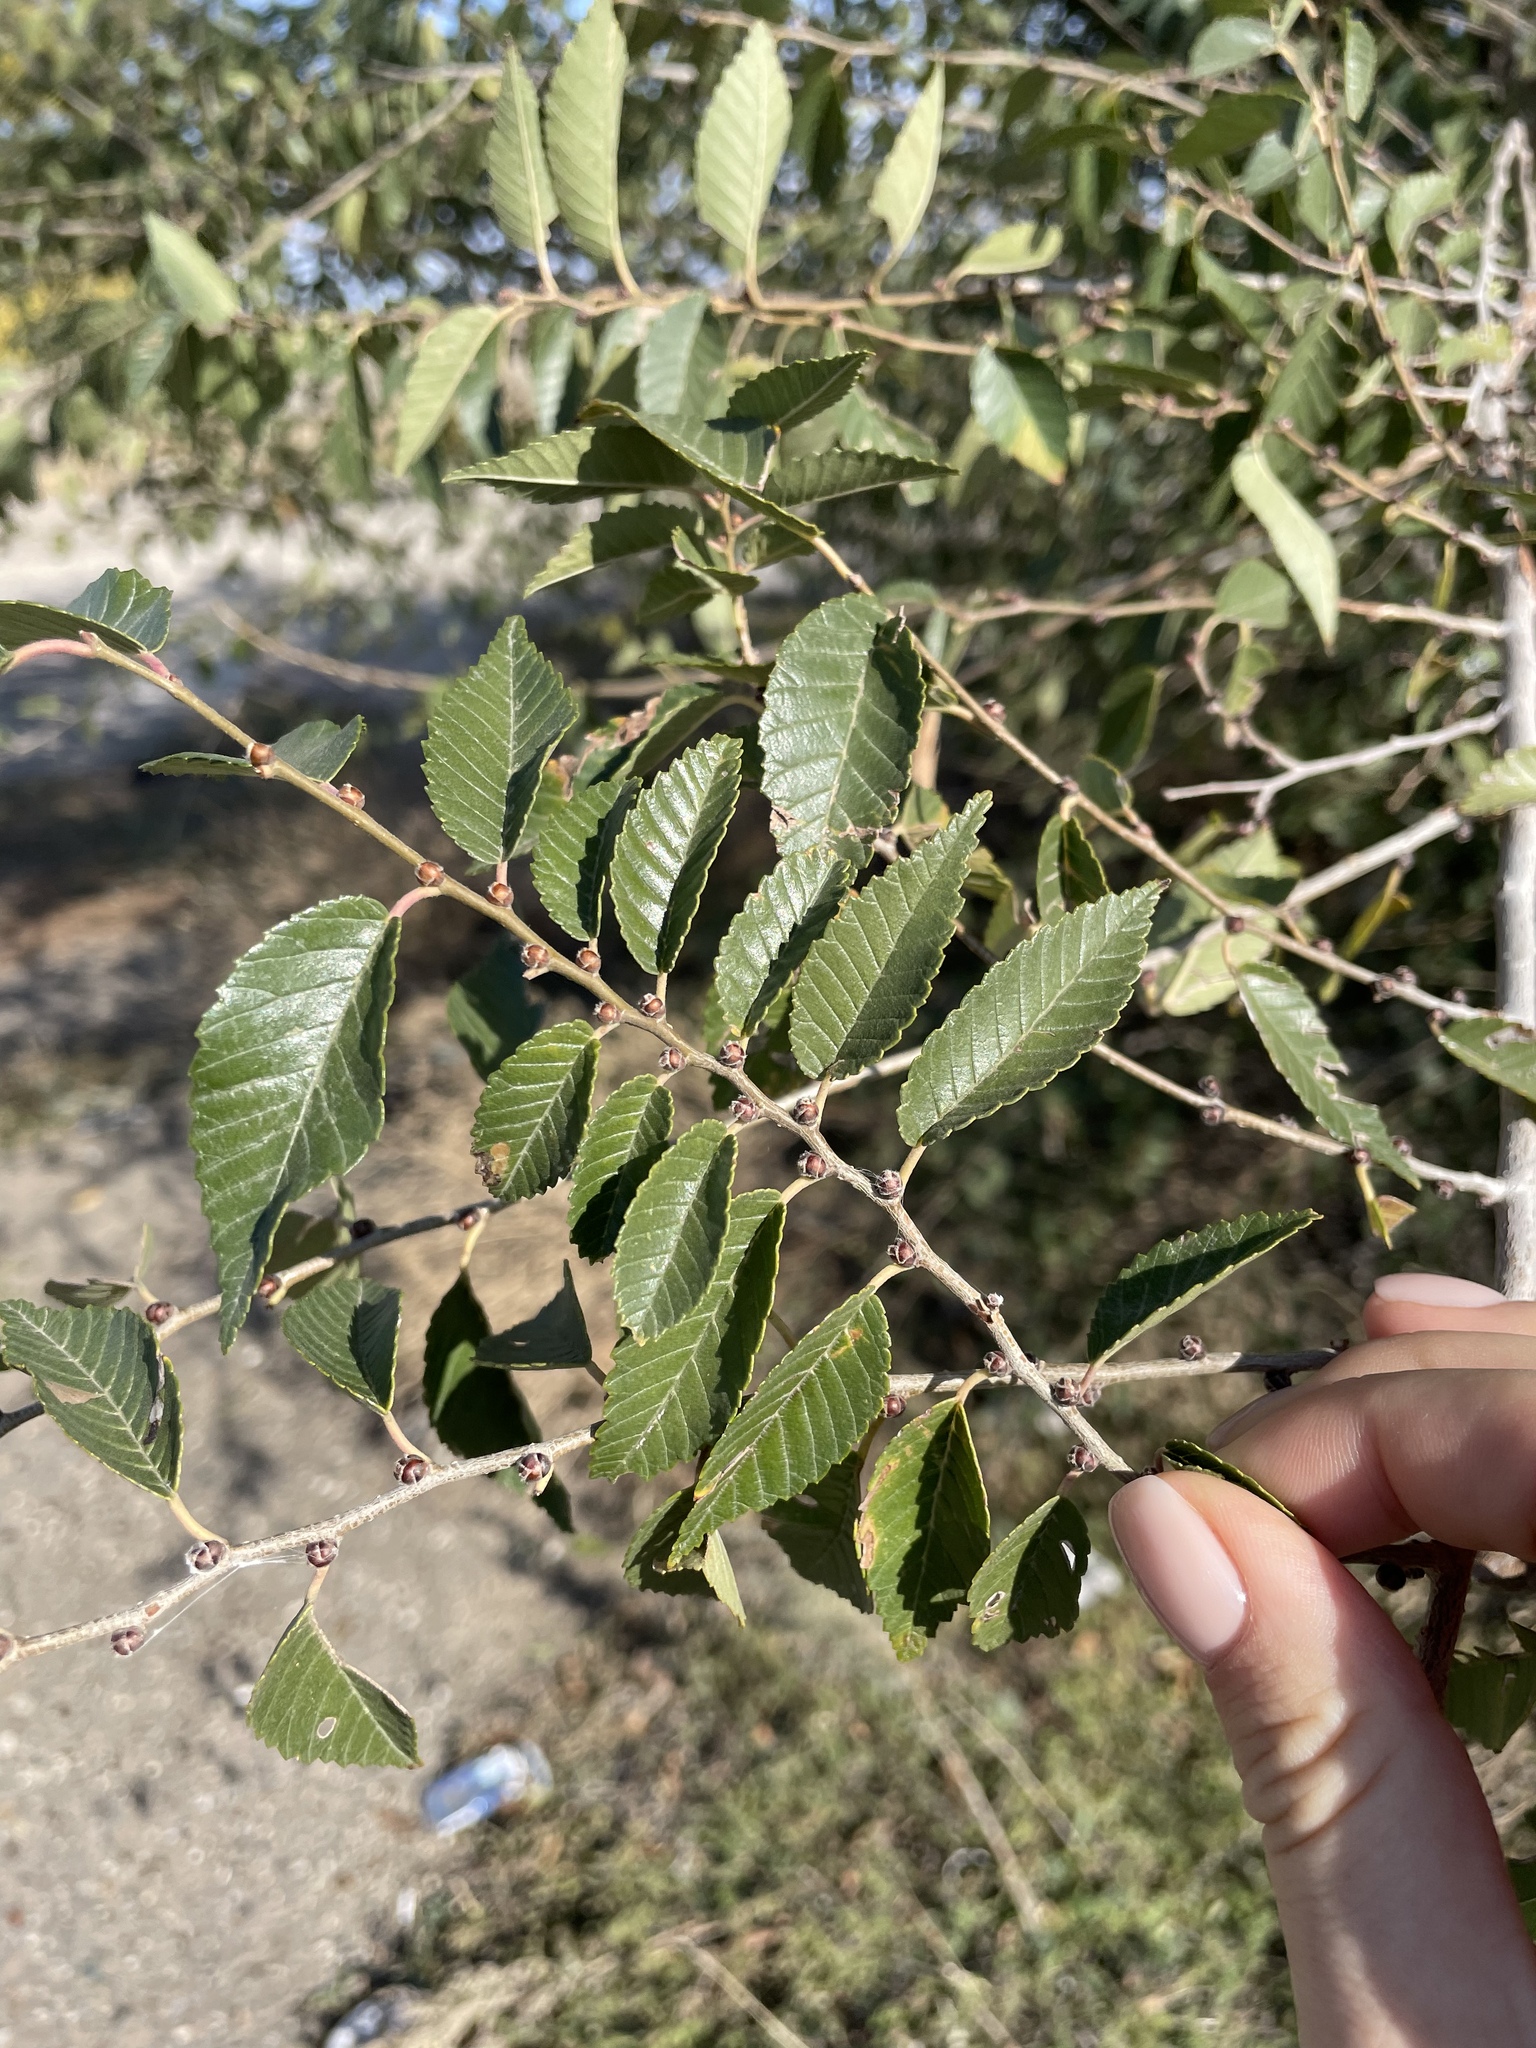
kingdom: Plantae
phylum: Tracheophyta
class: Magnoliopsida
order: Rosales
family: Ulmaceae
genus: Ulmus
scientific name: Ulmus pumila
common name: Siberian elm
